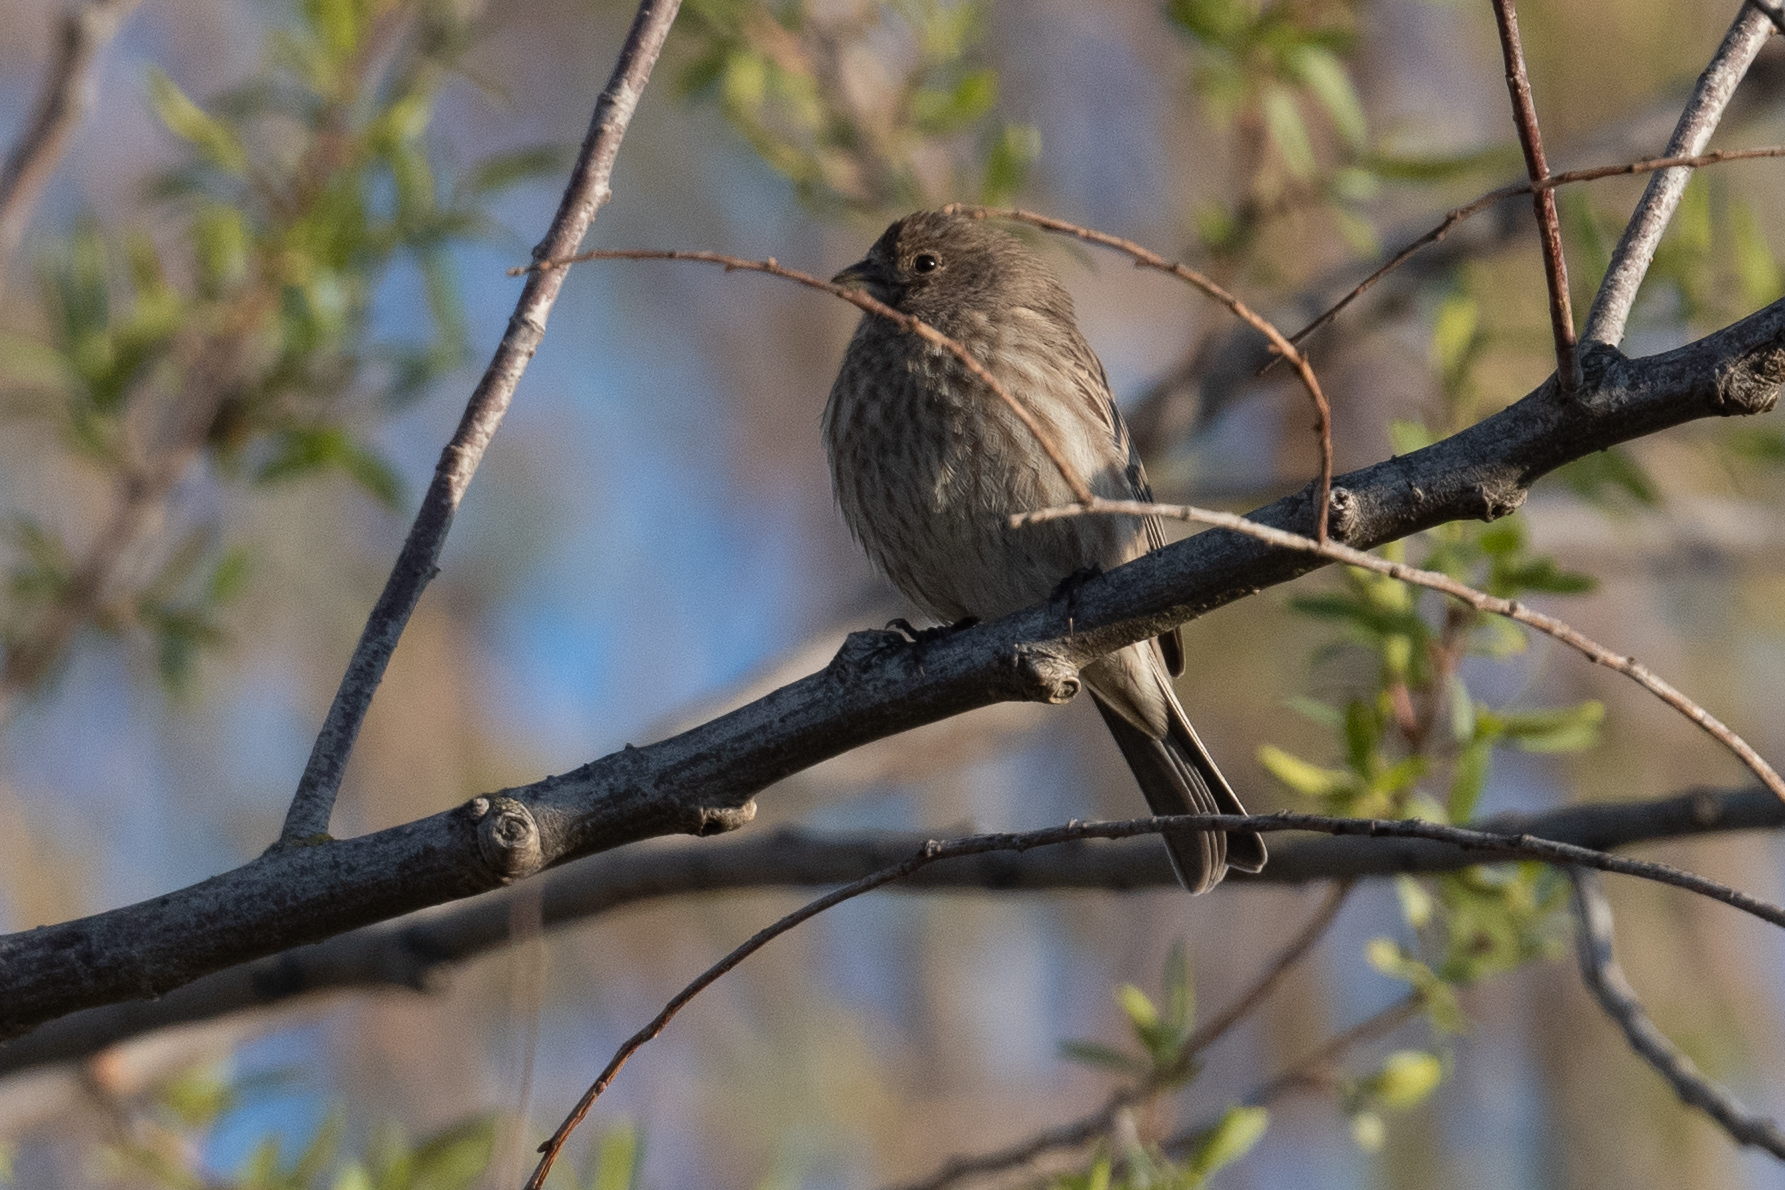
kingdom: Animalia
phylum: Chordata
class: Aves
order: Passeriformes
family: Fringillidae
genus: Haemorhous
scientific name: Haemorhous mexicanus
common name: House finch
